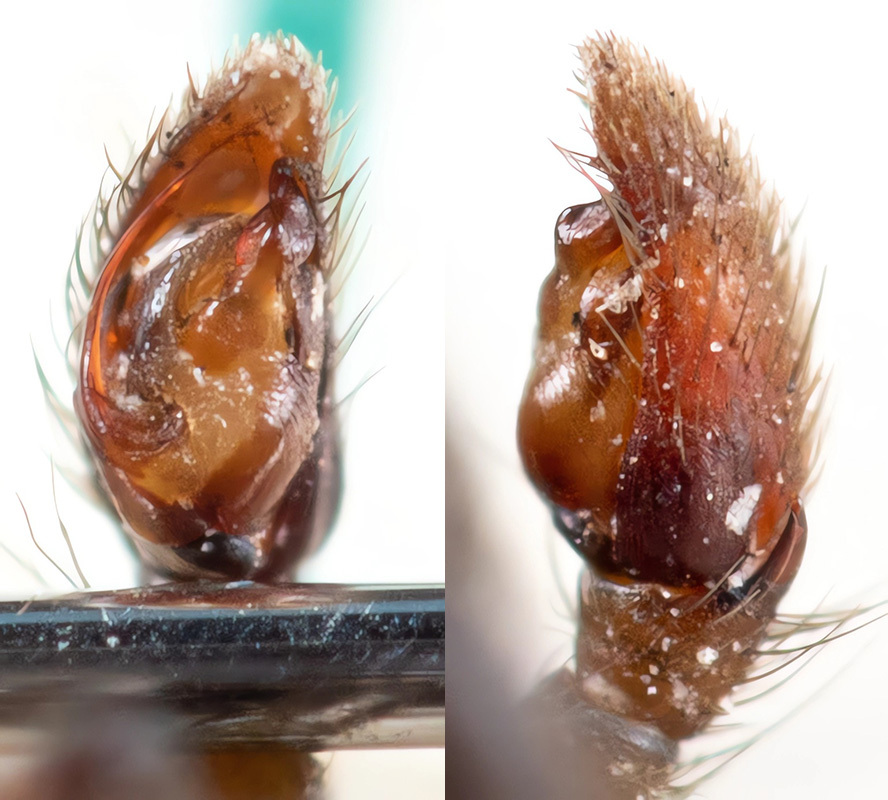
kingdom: Animalia
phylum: Arthropoda
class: Arachnida
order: Araneae
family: Gnaphosidae
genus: Gnaphosa
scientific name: Gnaphosa licenti
